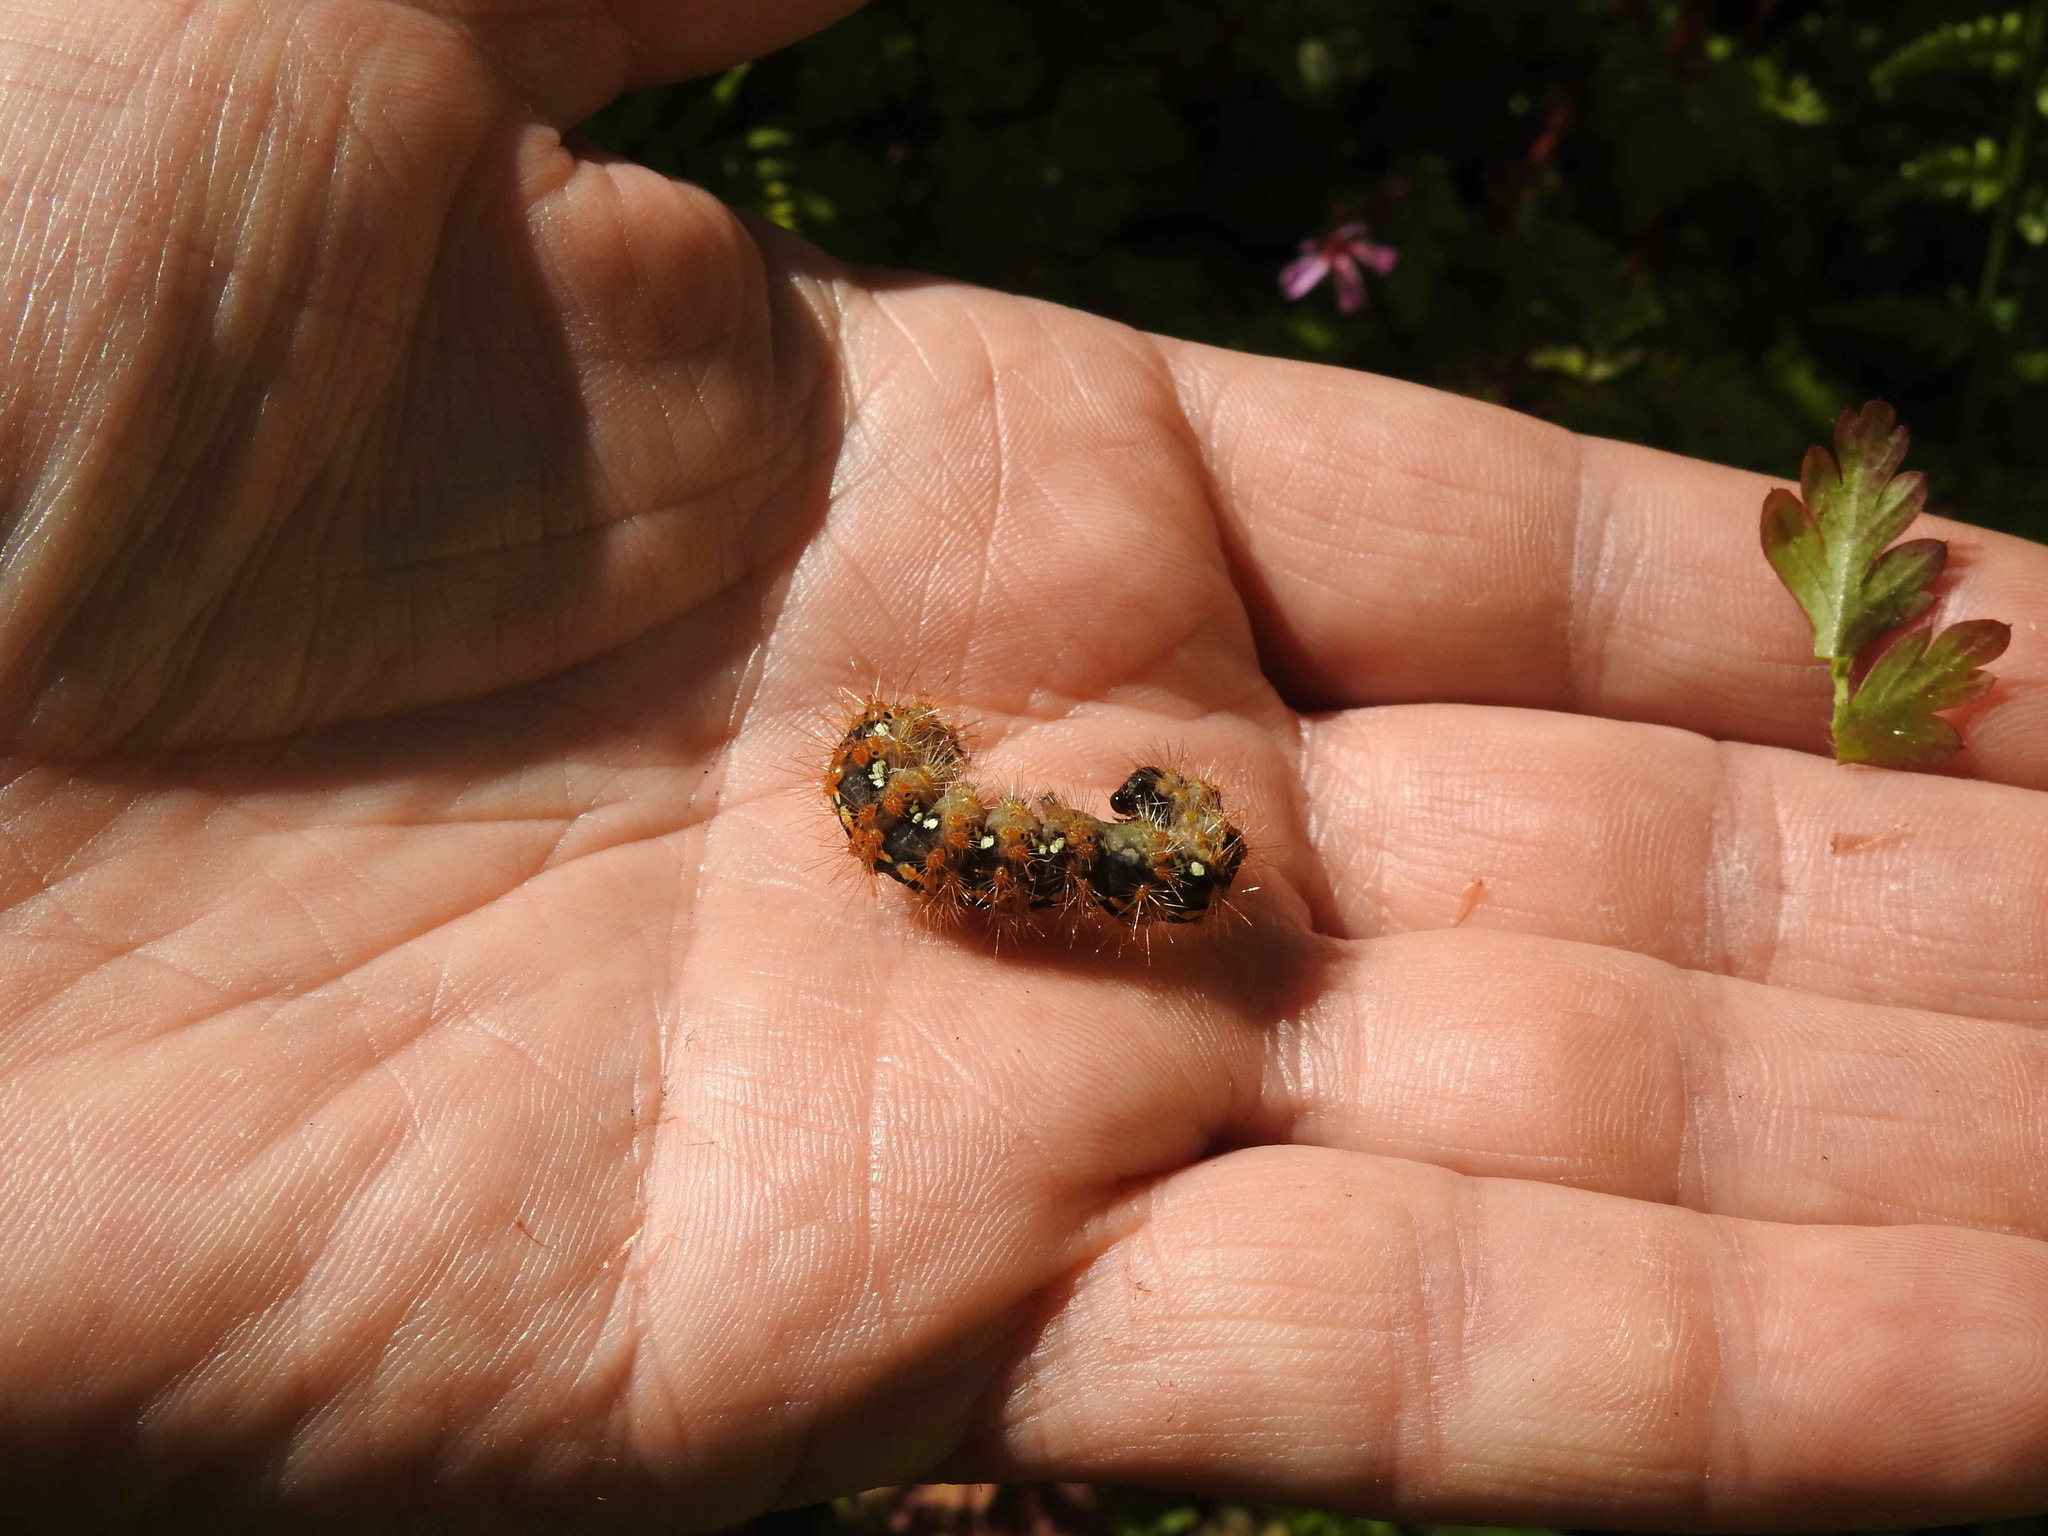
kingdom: Animalia
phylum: Arthropoda
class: Insecta
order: Lepidoptera
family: Erebidae
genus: Euplagia
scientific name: Euplagia quadripunctaria
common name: Jersey tiger
